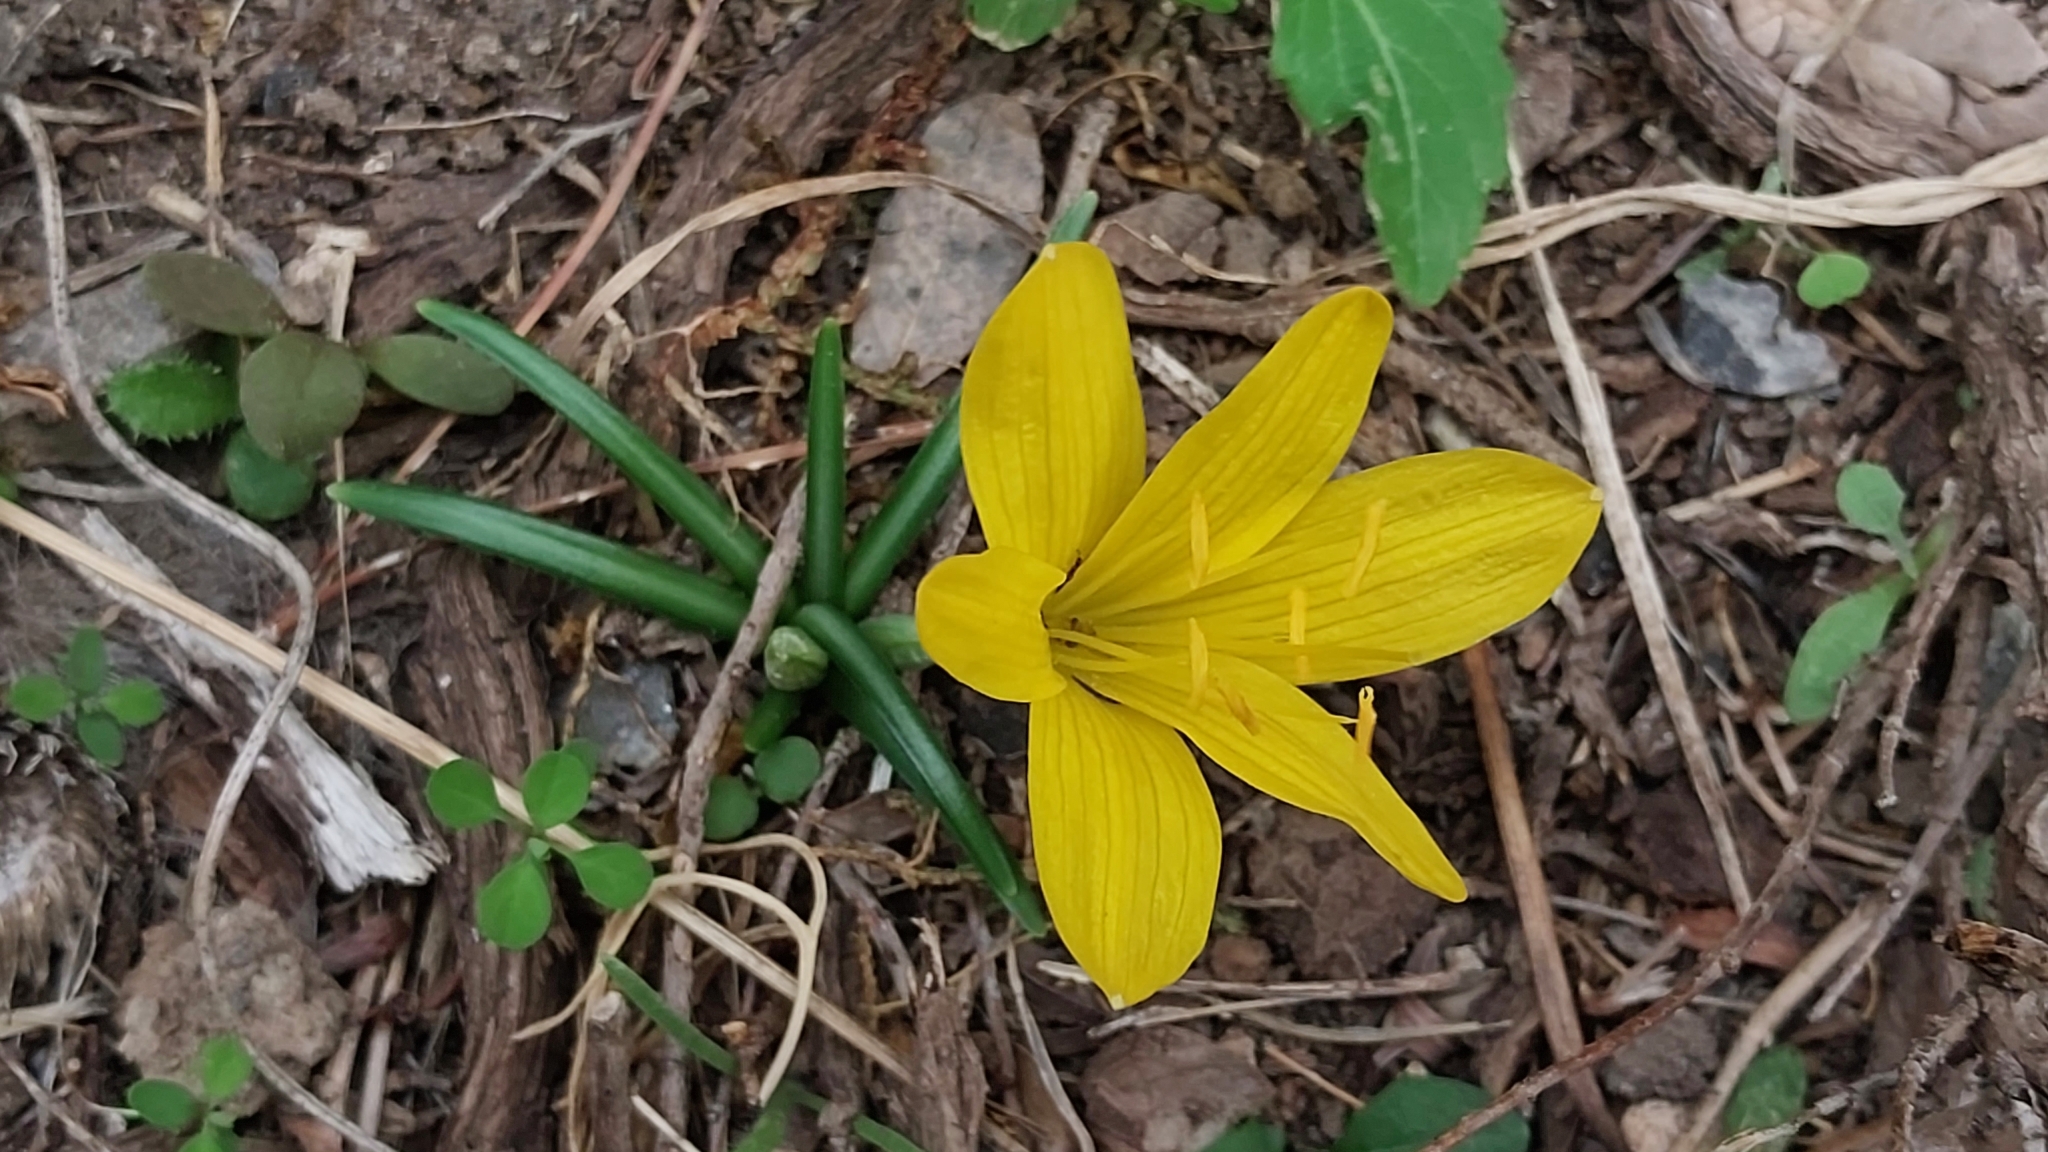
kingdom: Plantae
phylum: Tracheophyta
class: Liliopsida
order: Asparagales
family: Amaryllidaceae
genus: Sternbergia
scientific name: Sternbergia lutea
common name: Winter daffodil
